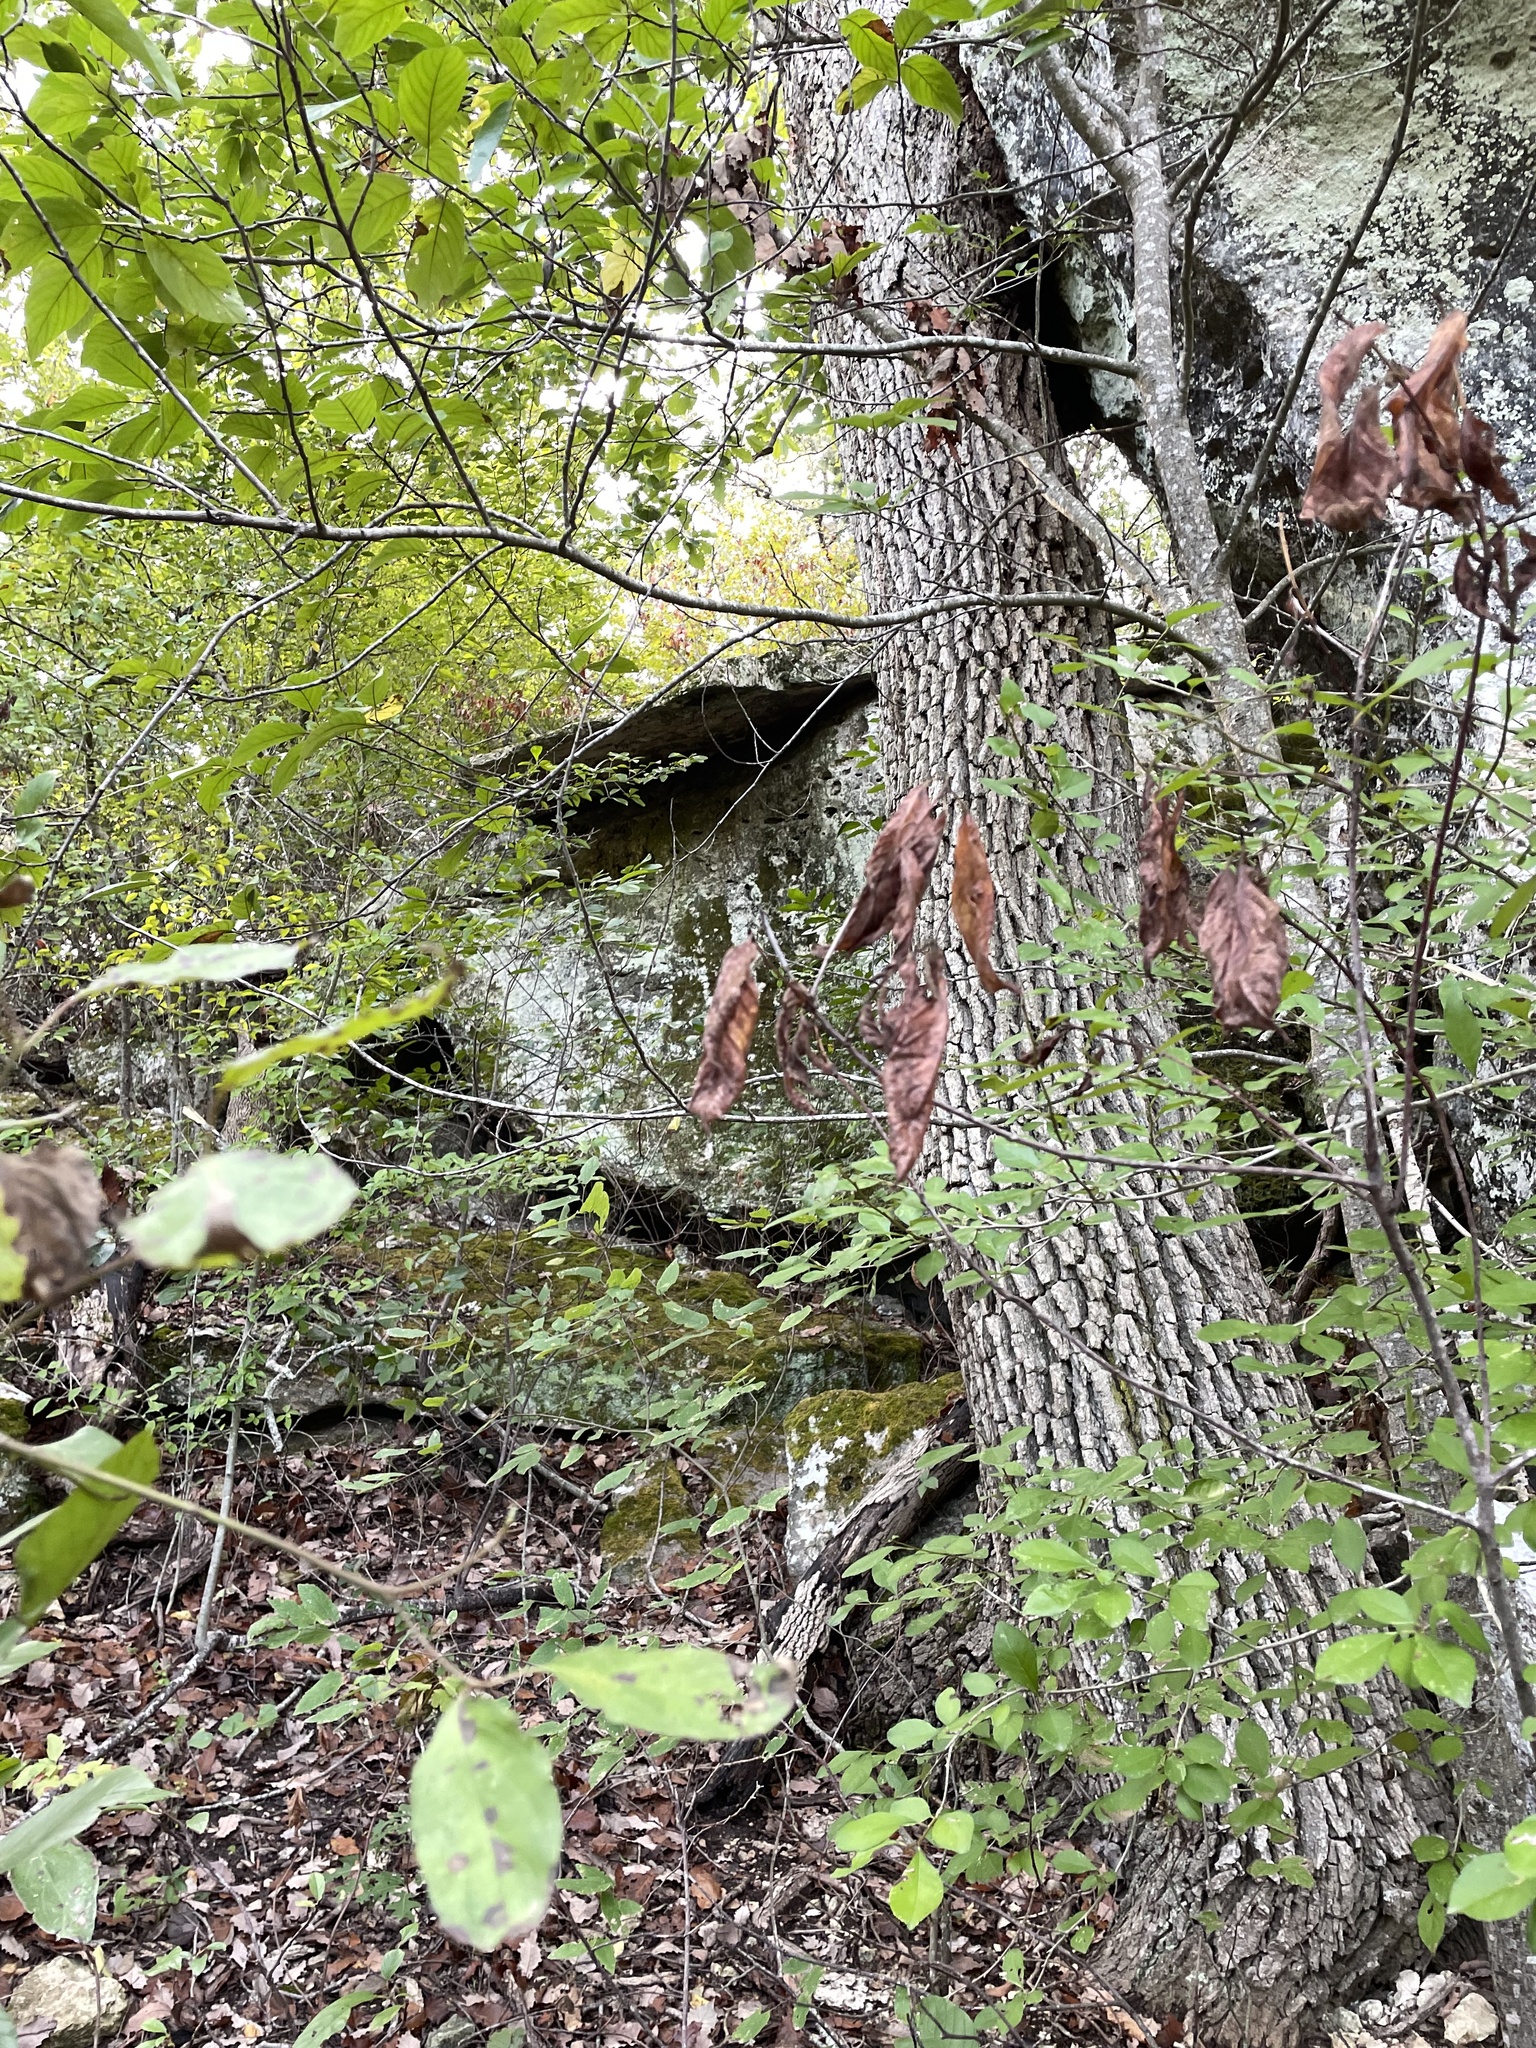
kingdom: Plantae
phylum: Tracheophyta
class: Magnoliopsida
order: Fagales
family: Fagaceae
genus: Quercus
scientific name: Quercus muehlenbergii
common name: Chinkapin oak
